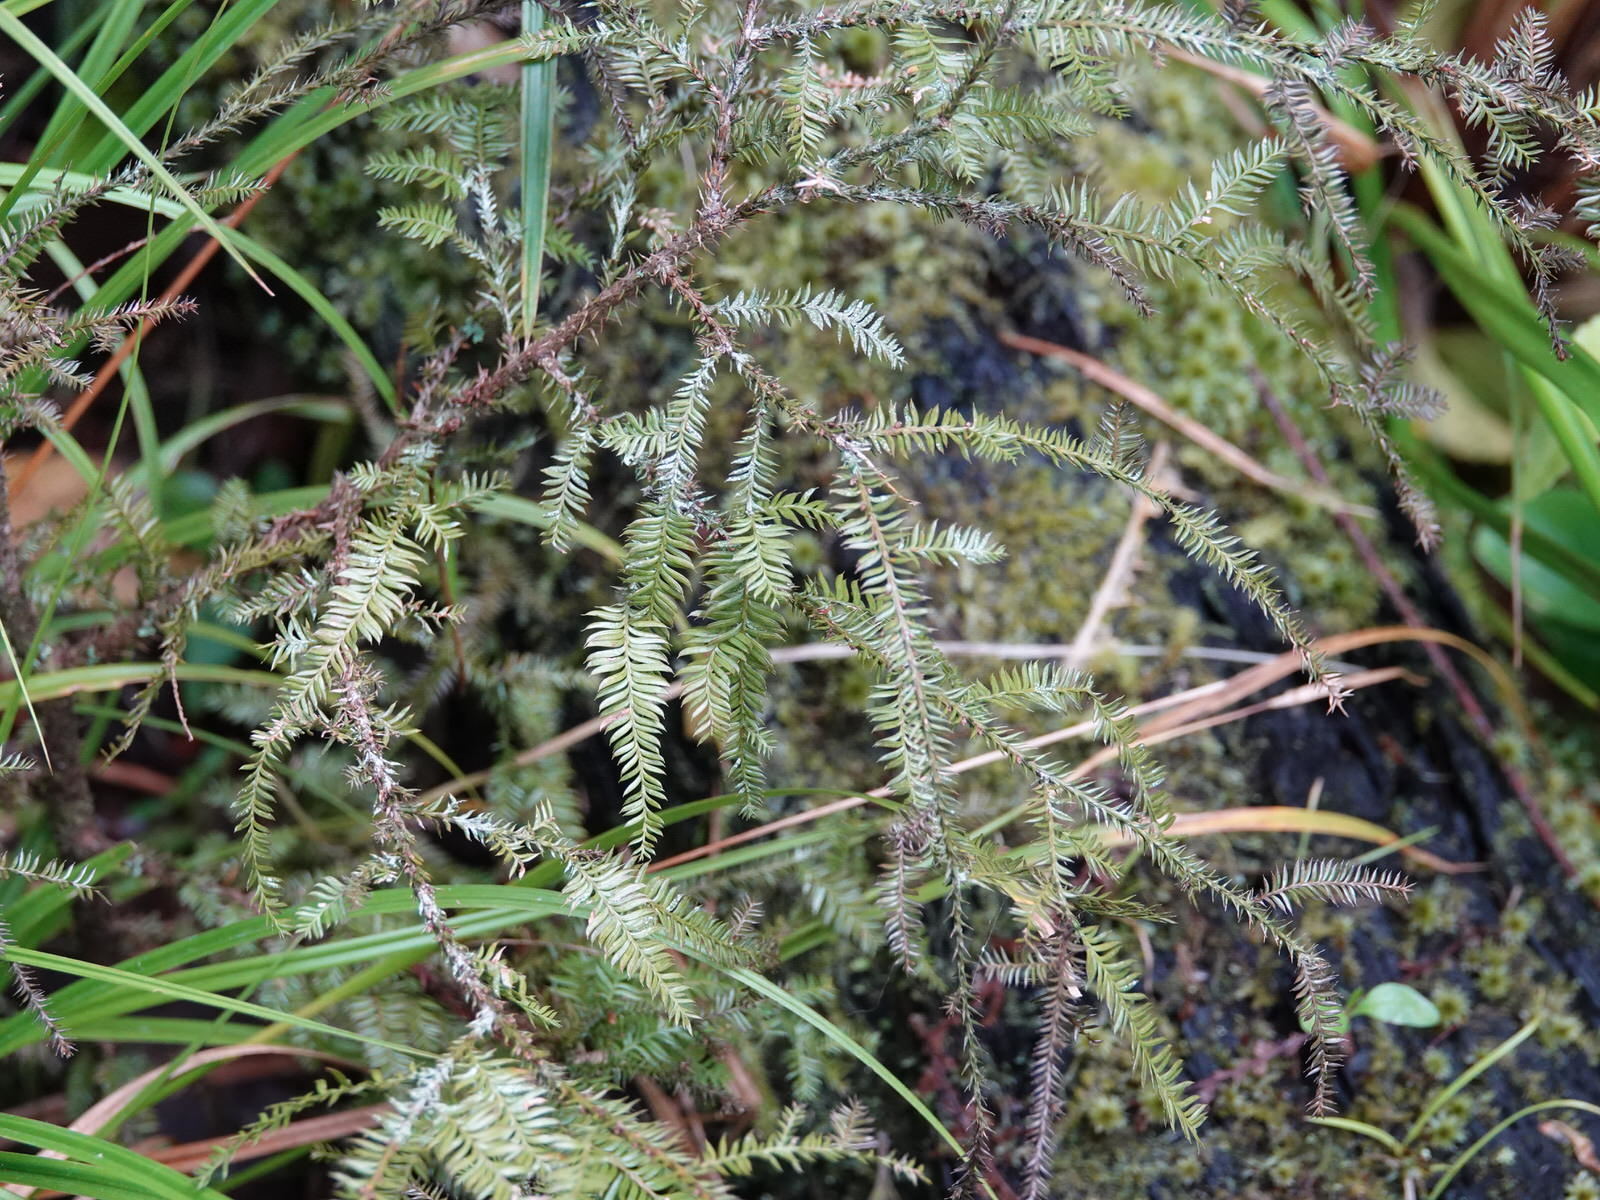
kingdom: Plantae
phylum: Tracheophyta
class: Pinopsida
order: Pinales
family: Podocarpaceae
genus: Dacrycarpus
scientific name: Dacrycarpus dacrydioides
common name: White pine
